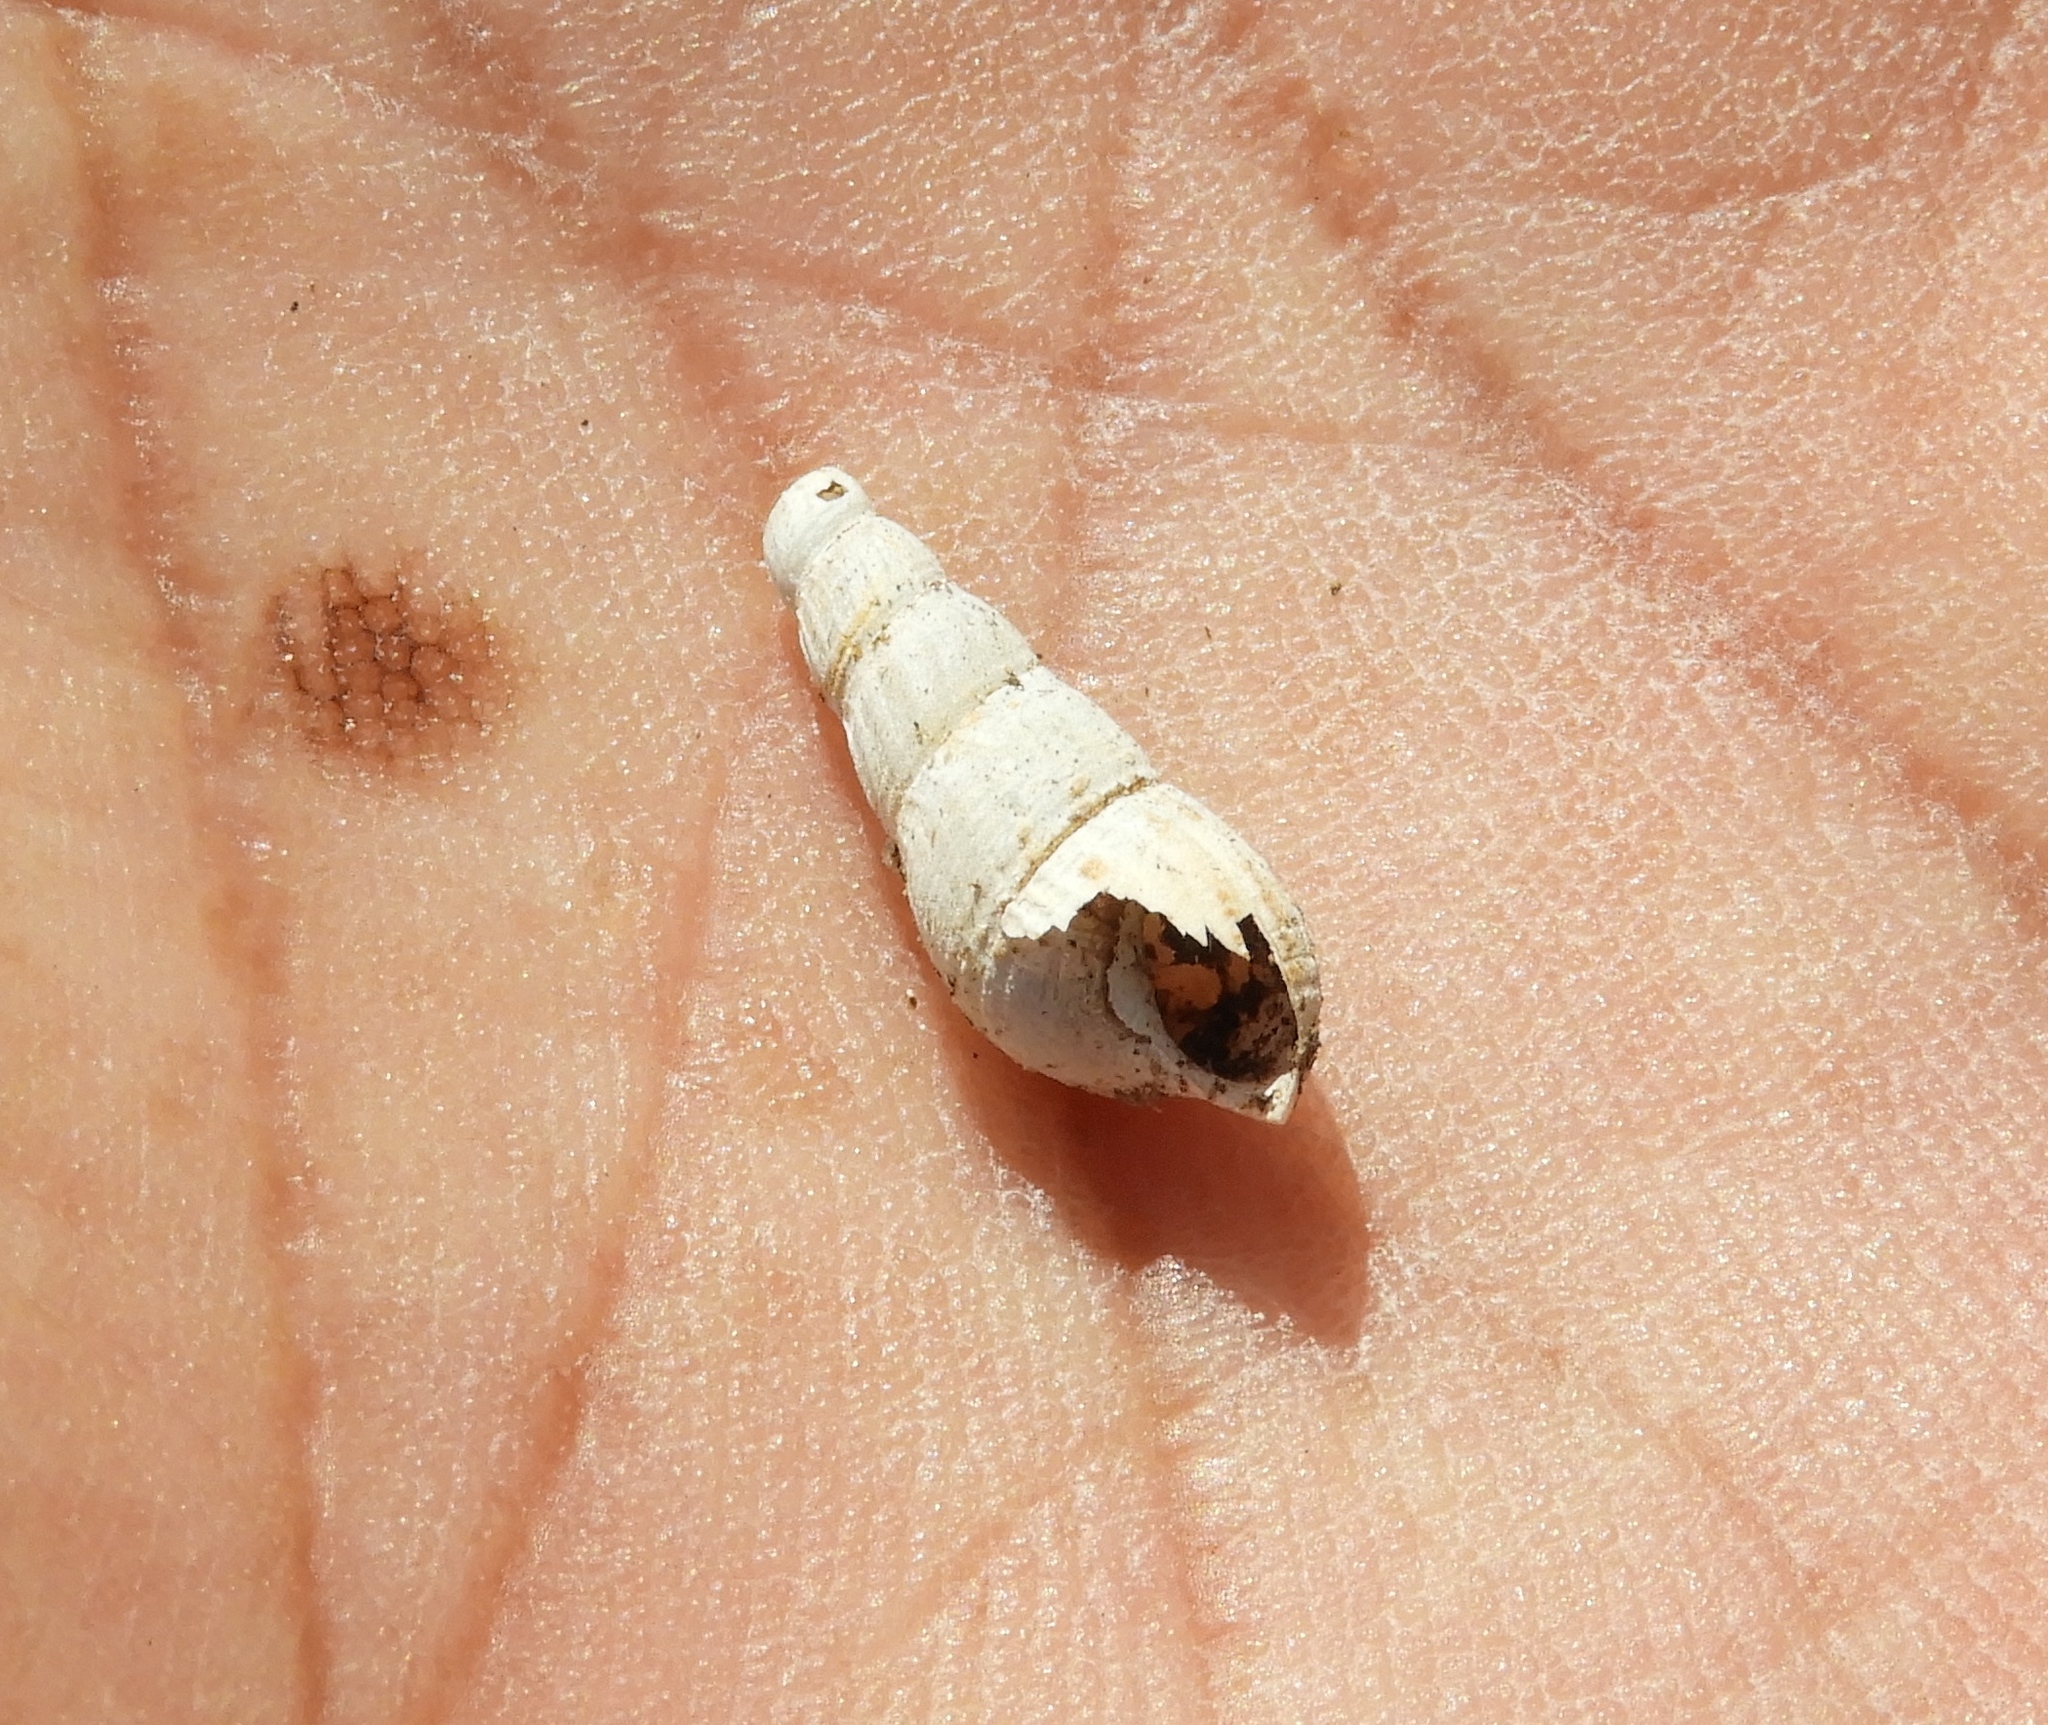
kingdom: Animalia
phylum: Mollusca
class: Gastropoda
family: Thiaridae
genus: Melanoides
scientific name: Melanoides tuberculata
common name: Red-rim melania
